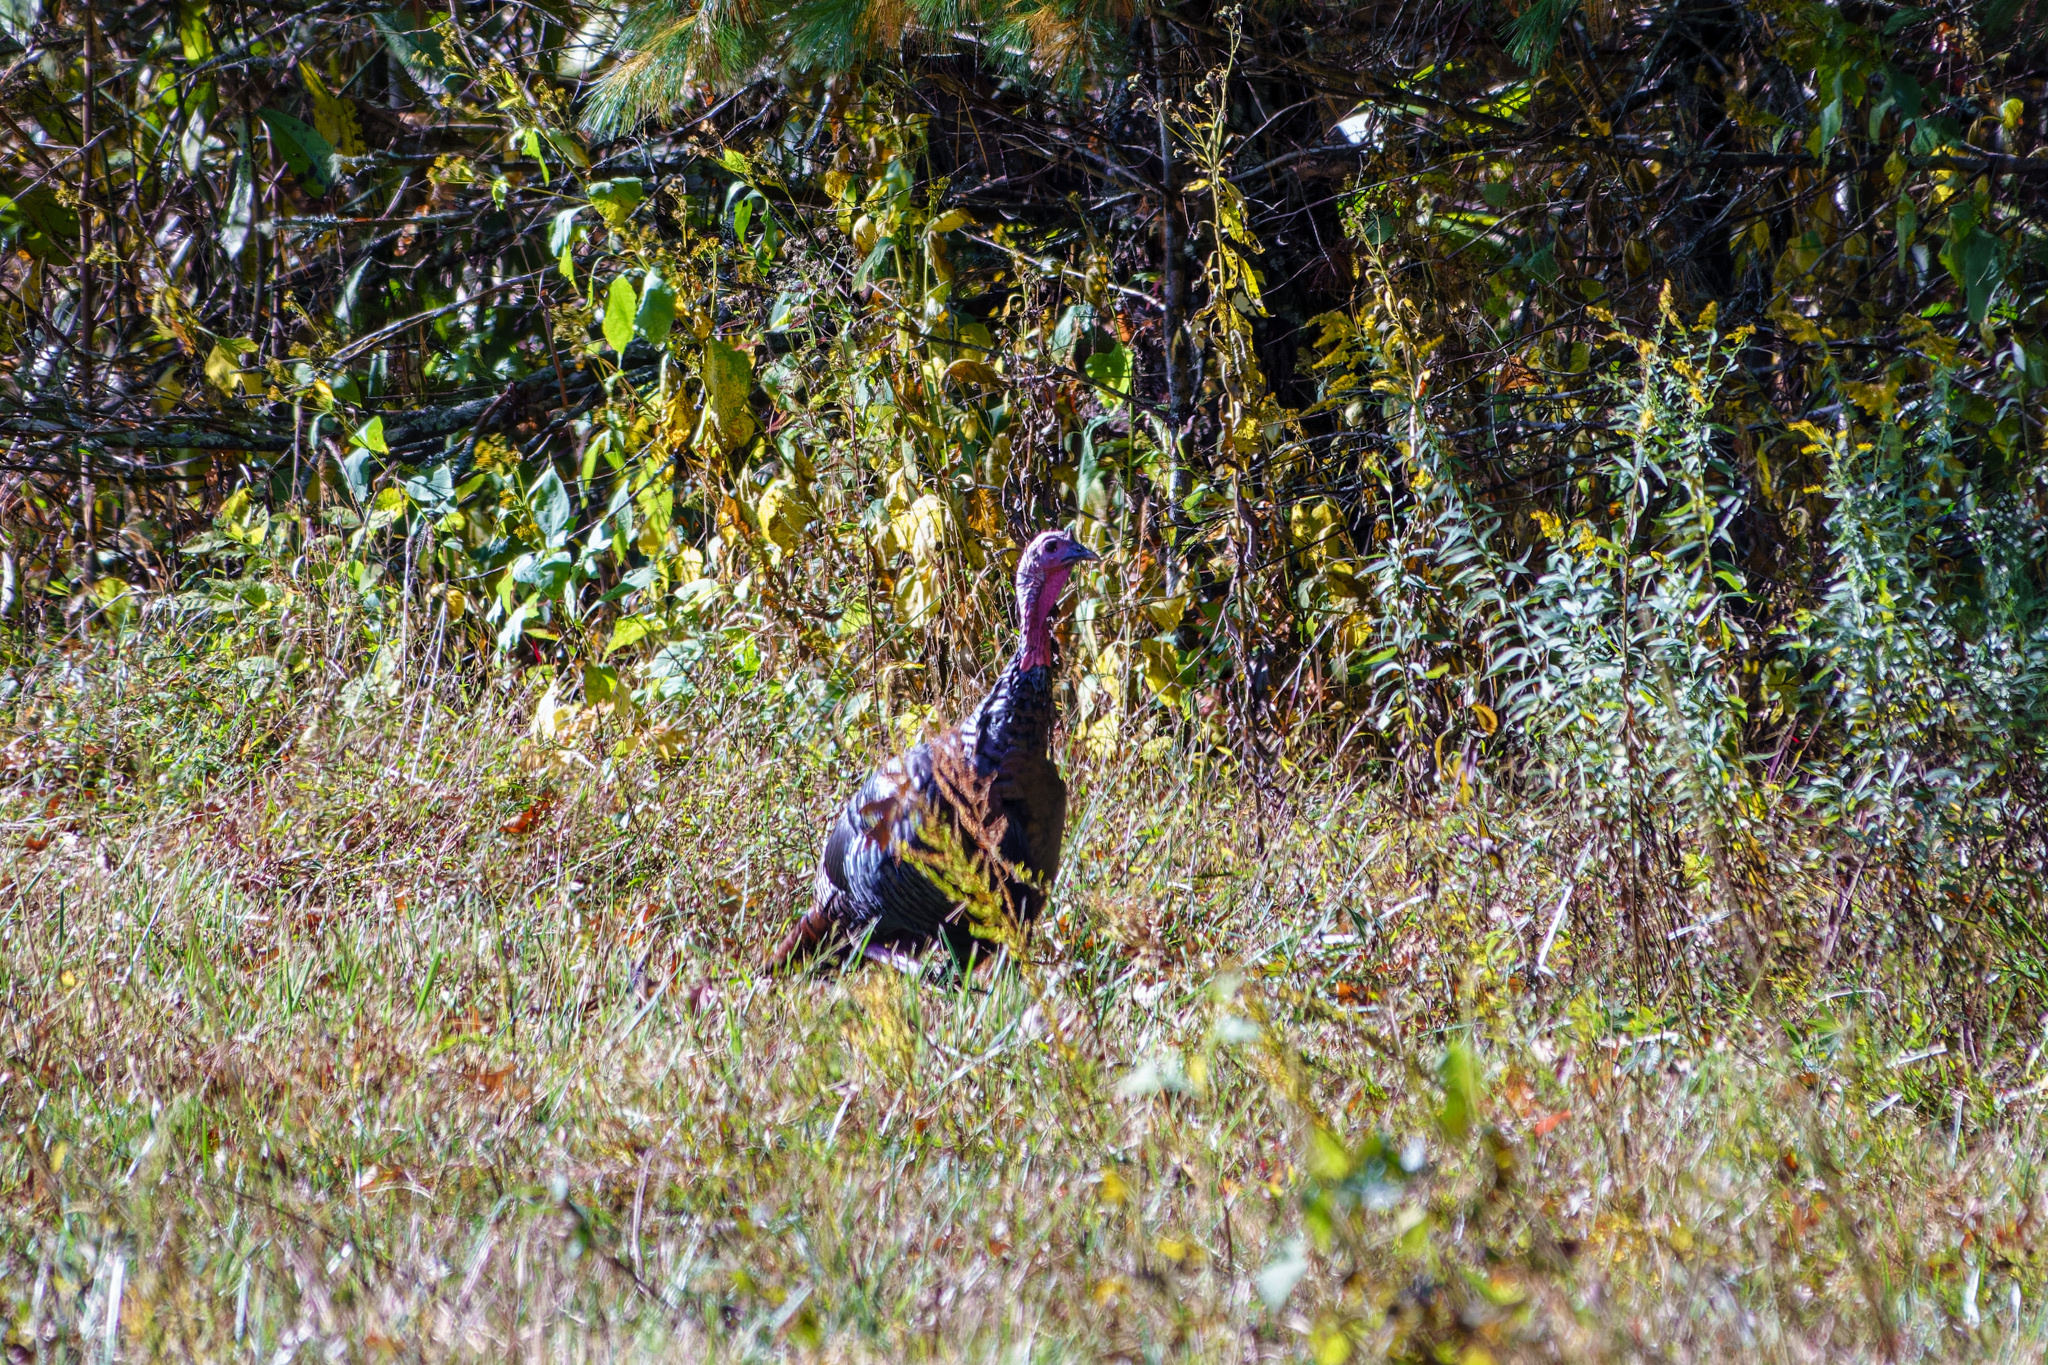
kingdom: Animalia
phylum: Chordata
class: Aves
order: Galliformes
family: Phasianidae
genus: Meleagris
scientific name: Meleagris gallopavo
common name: Wild turkey
